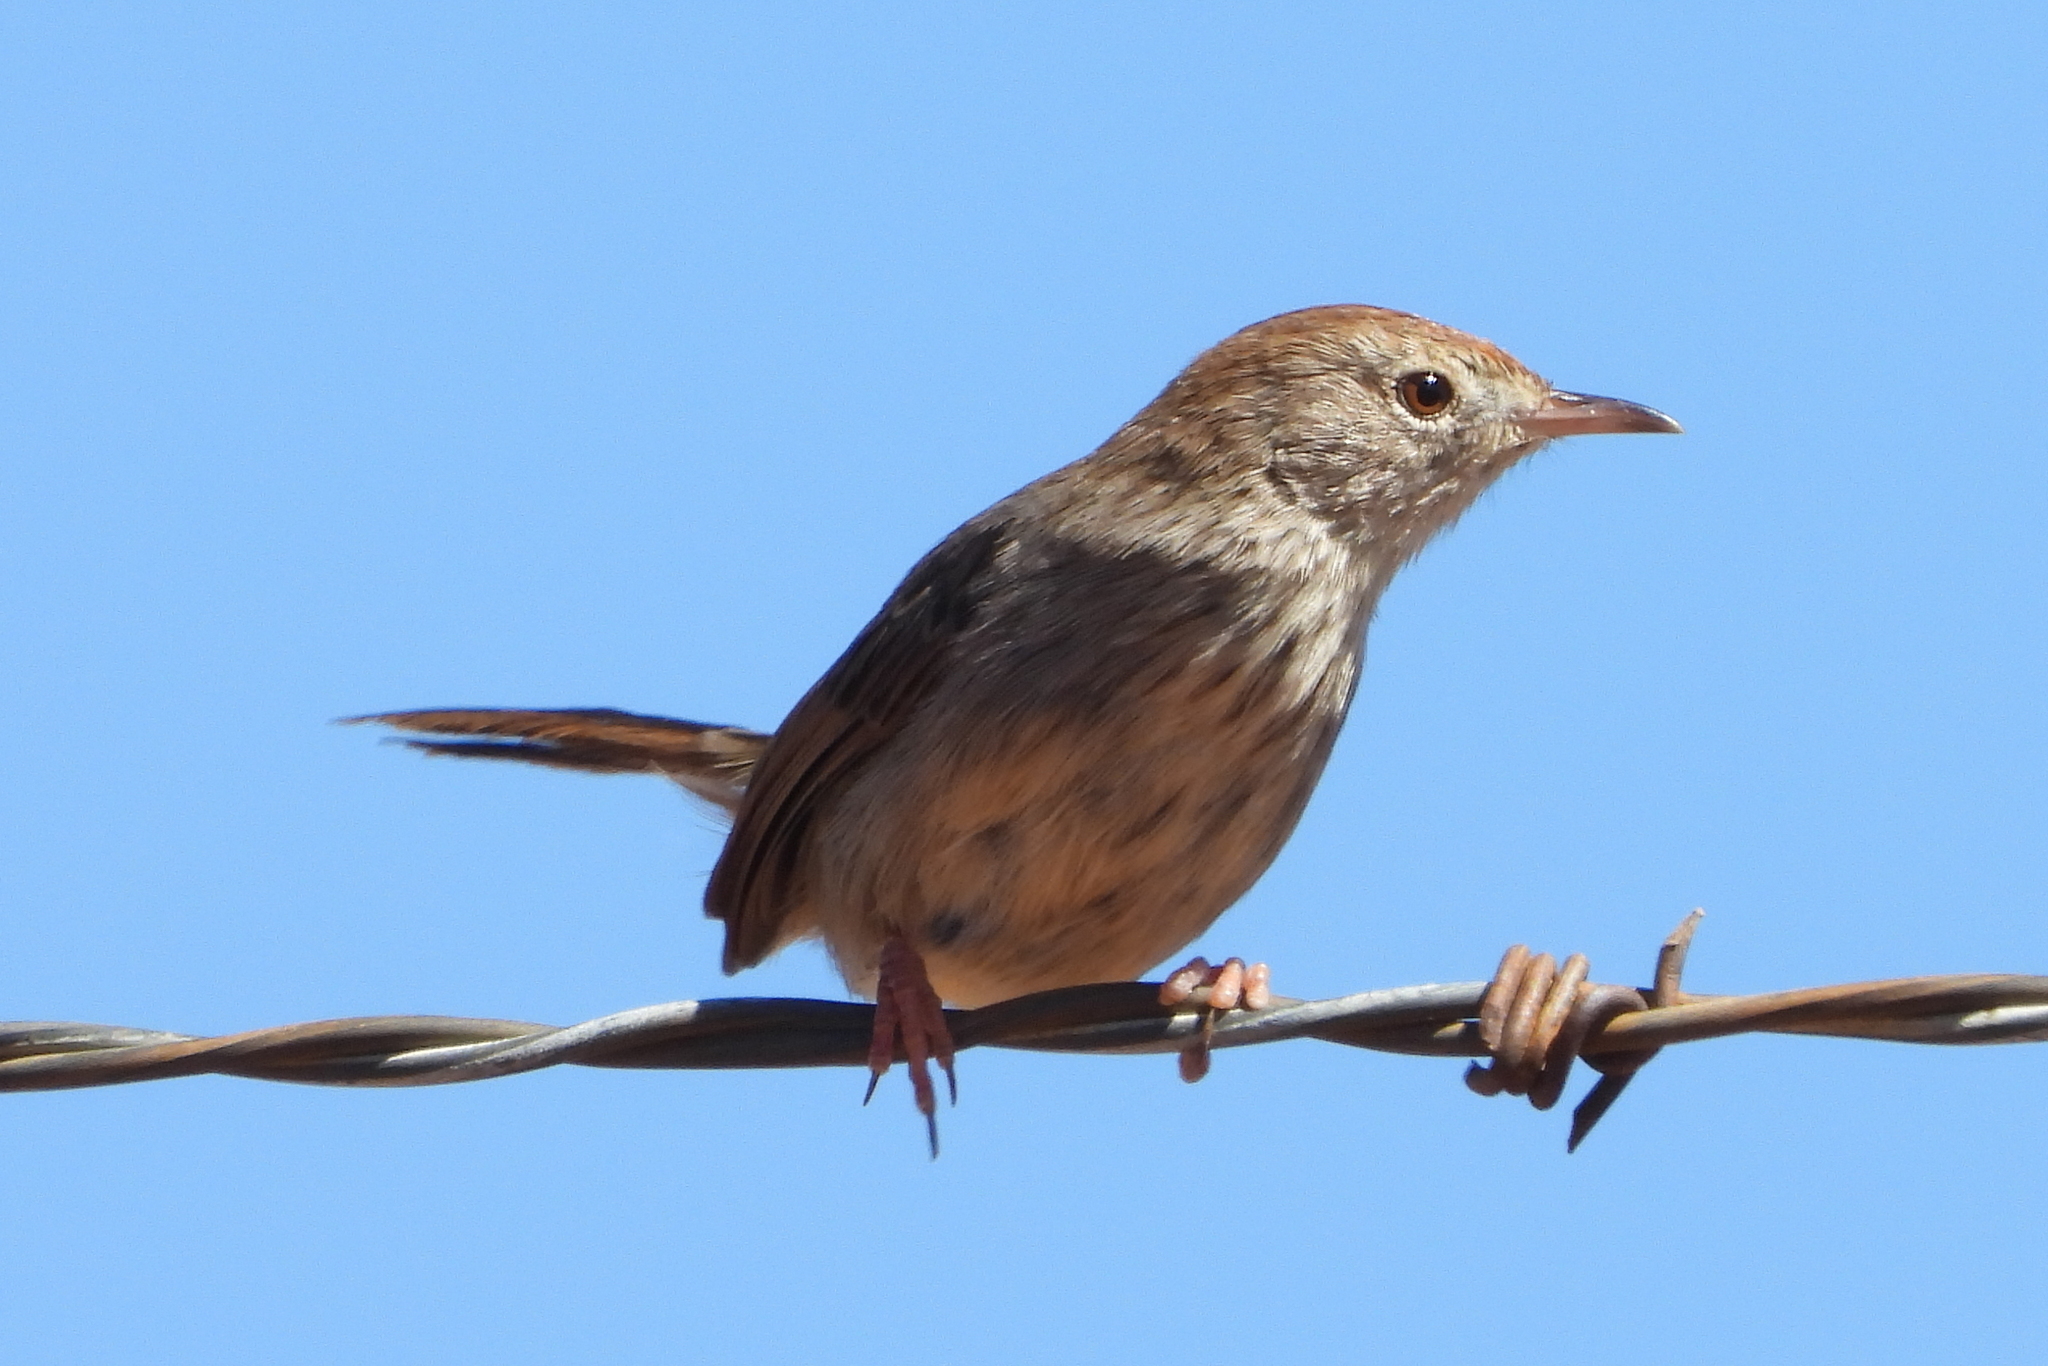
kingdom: Animalia
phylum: Chordata
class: Aves
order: Passeriformes
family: Cisticolidae
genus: Cisticola
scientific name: Cisticola subruficapilla
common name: Grey-backed cisticola
